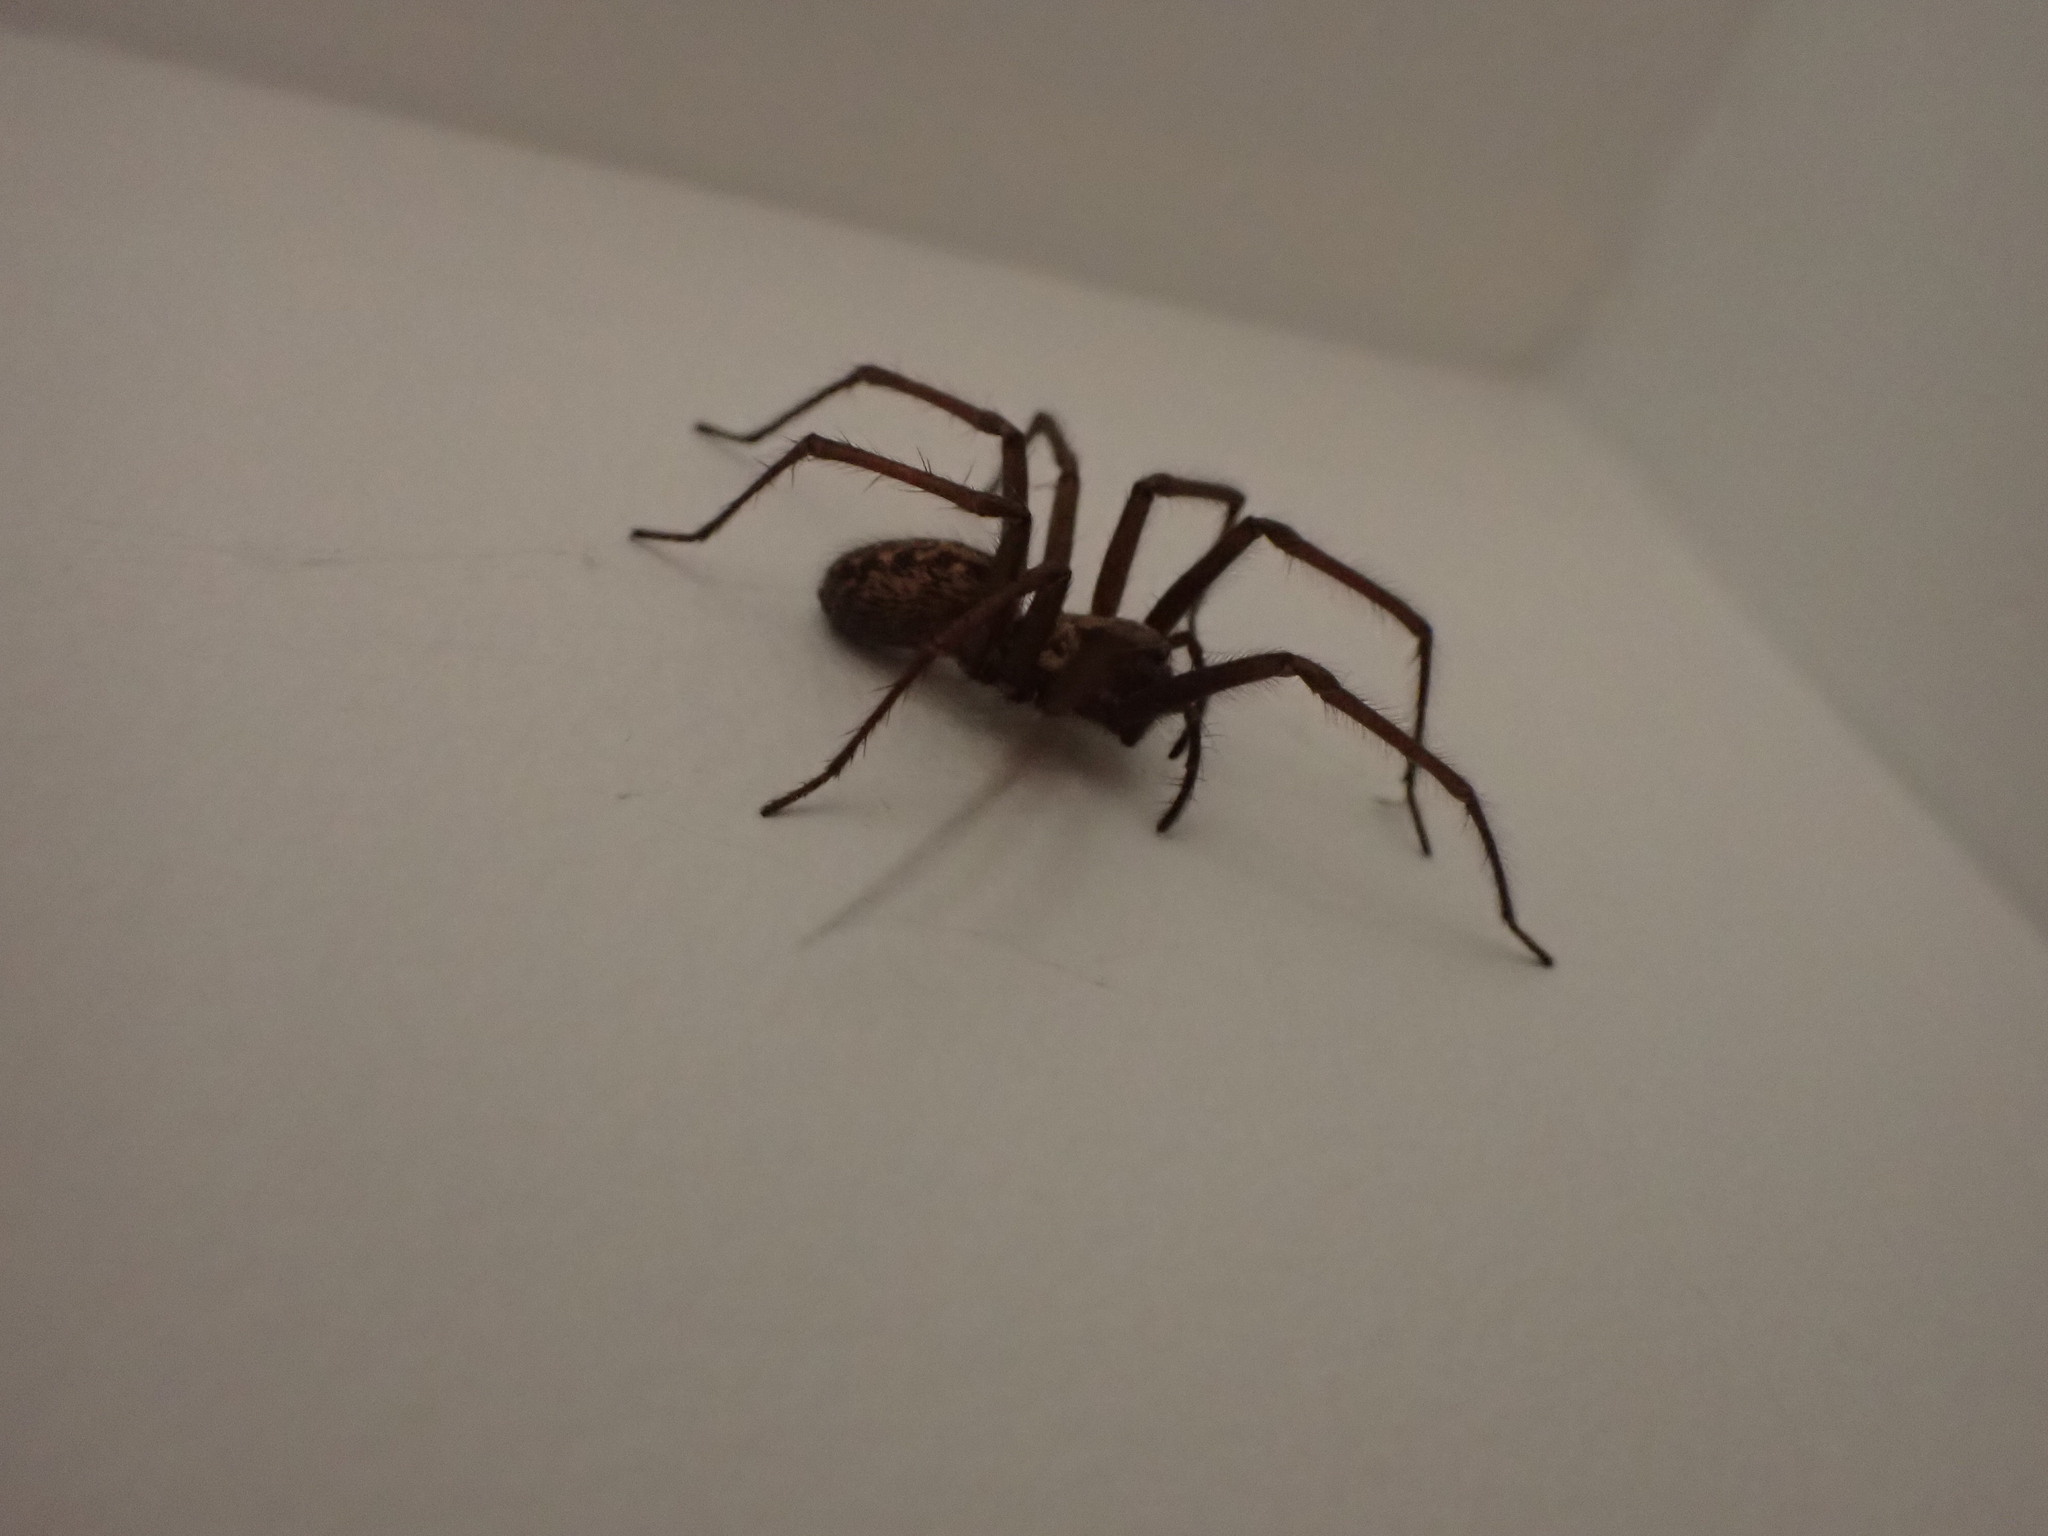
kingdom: Animalia
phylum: Arthropoda
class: Arachnida
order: Araneae
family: Agelenidae
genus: Eratigena
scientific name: Eratigena duellica
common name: Giant house spider
